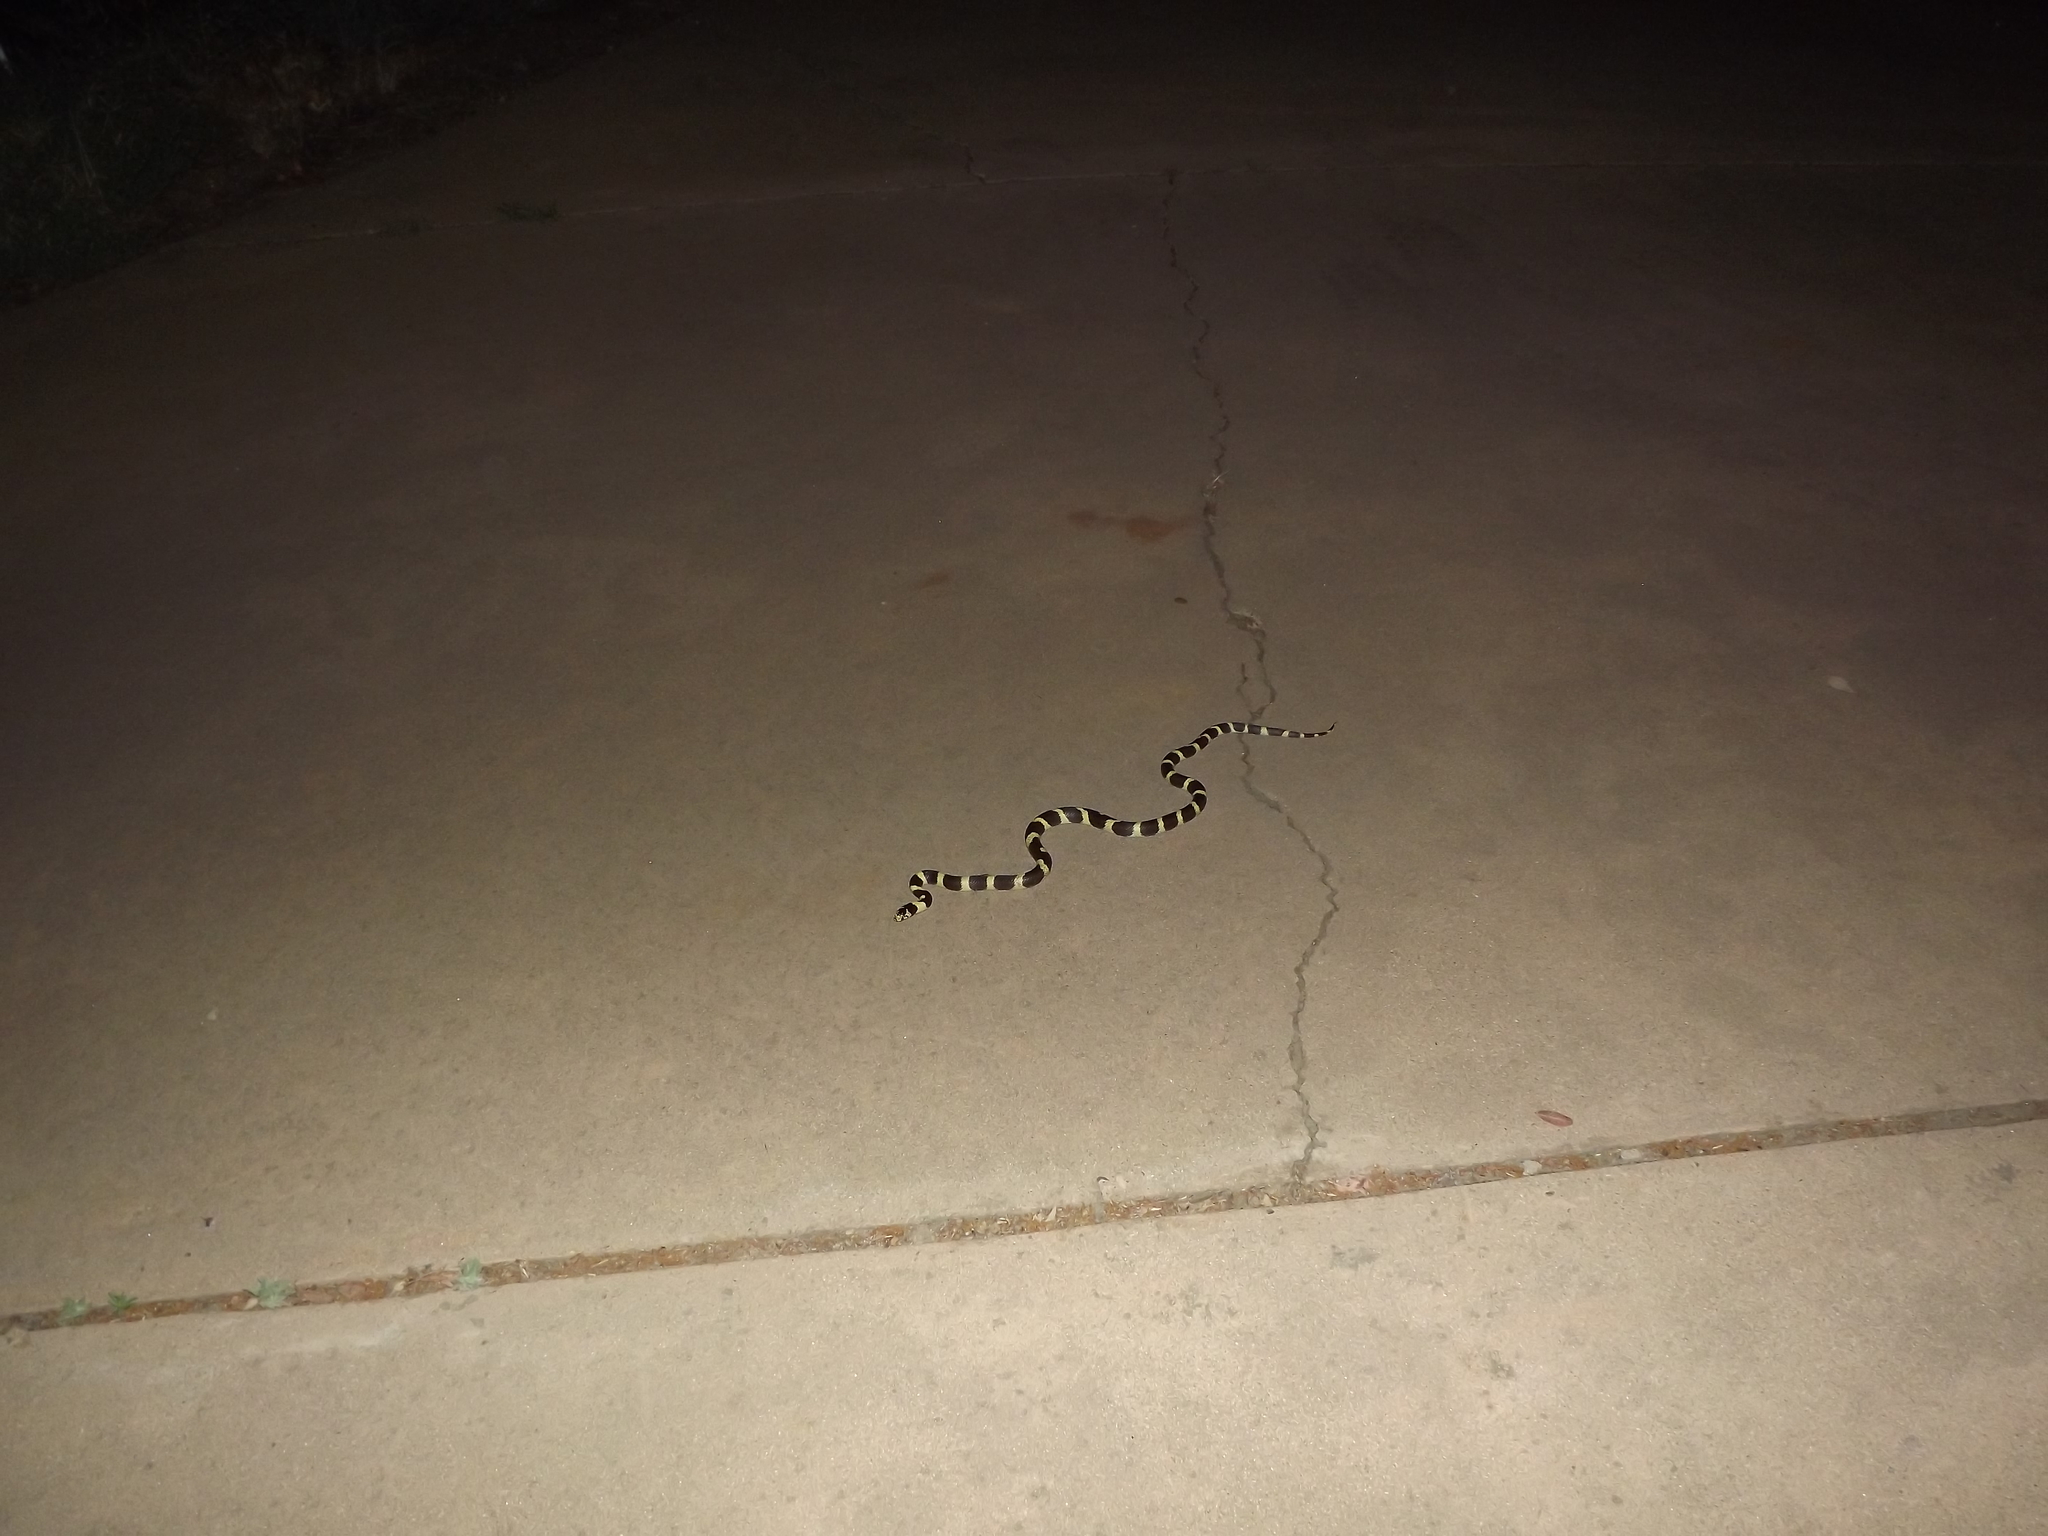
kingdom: Animalia
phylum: Chordata
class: Squamata
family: Colubridae
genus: Lampropeltis
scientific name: Lampropeltis californiae
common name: California kingsnake
